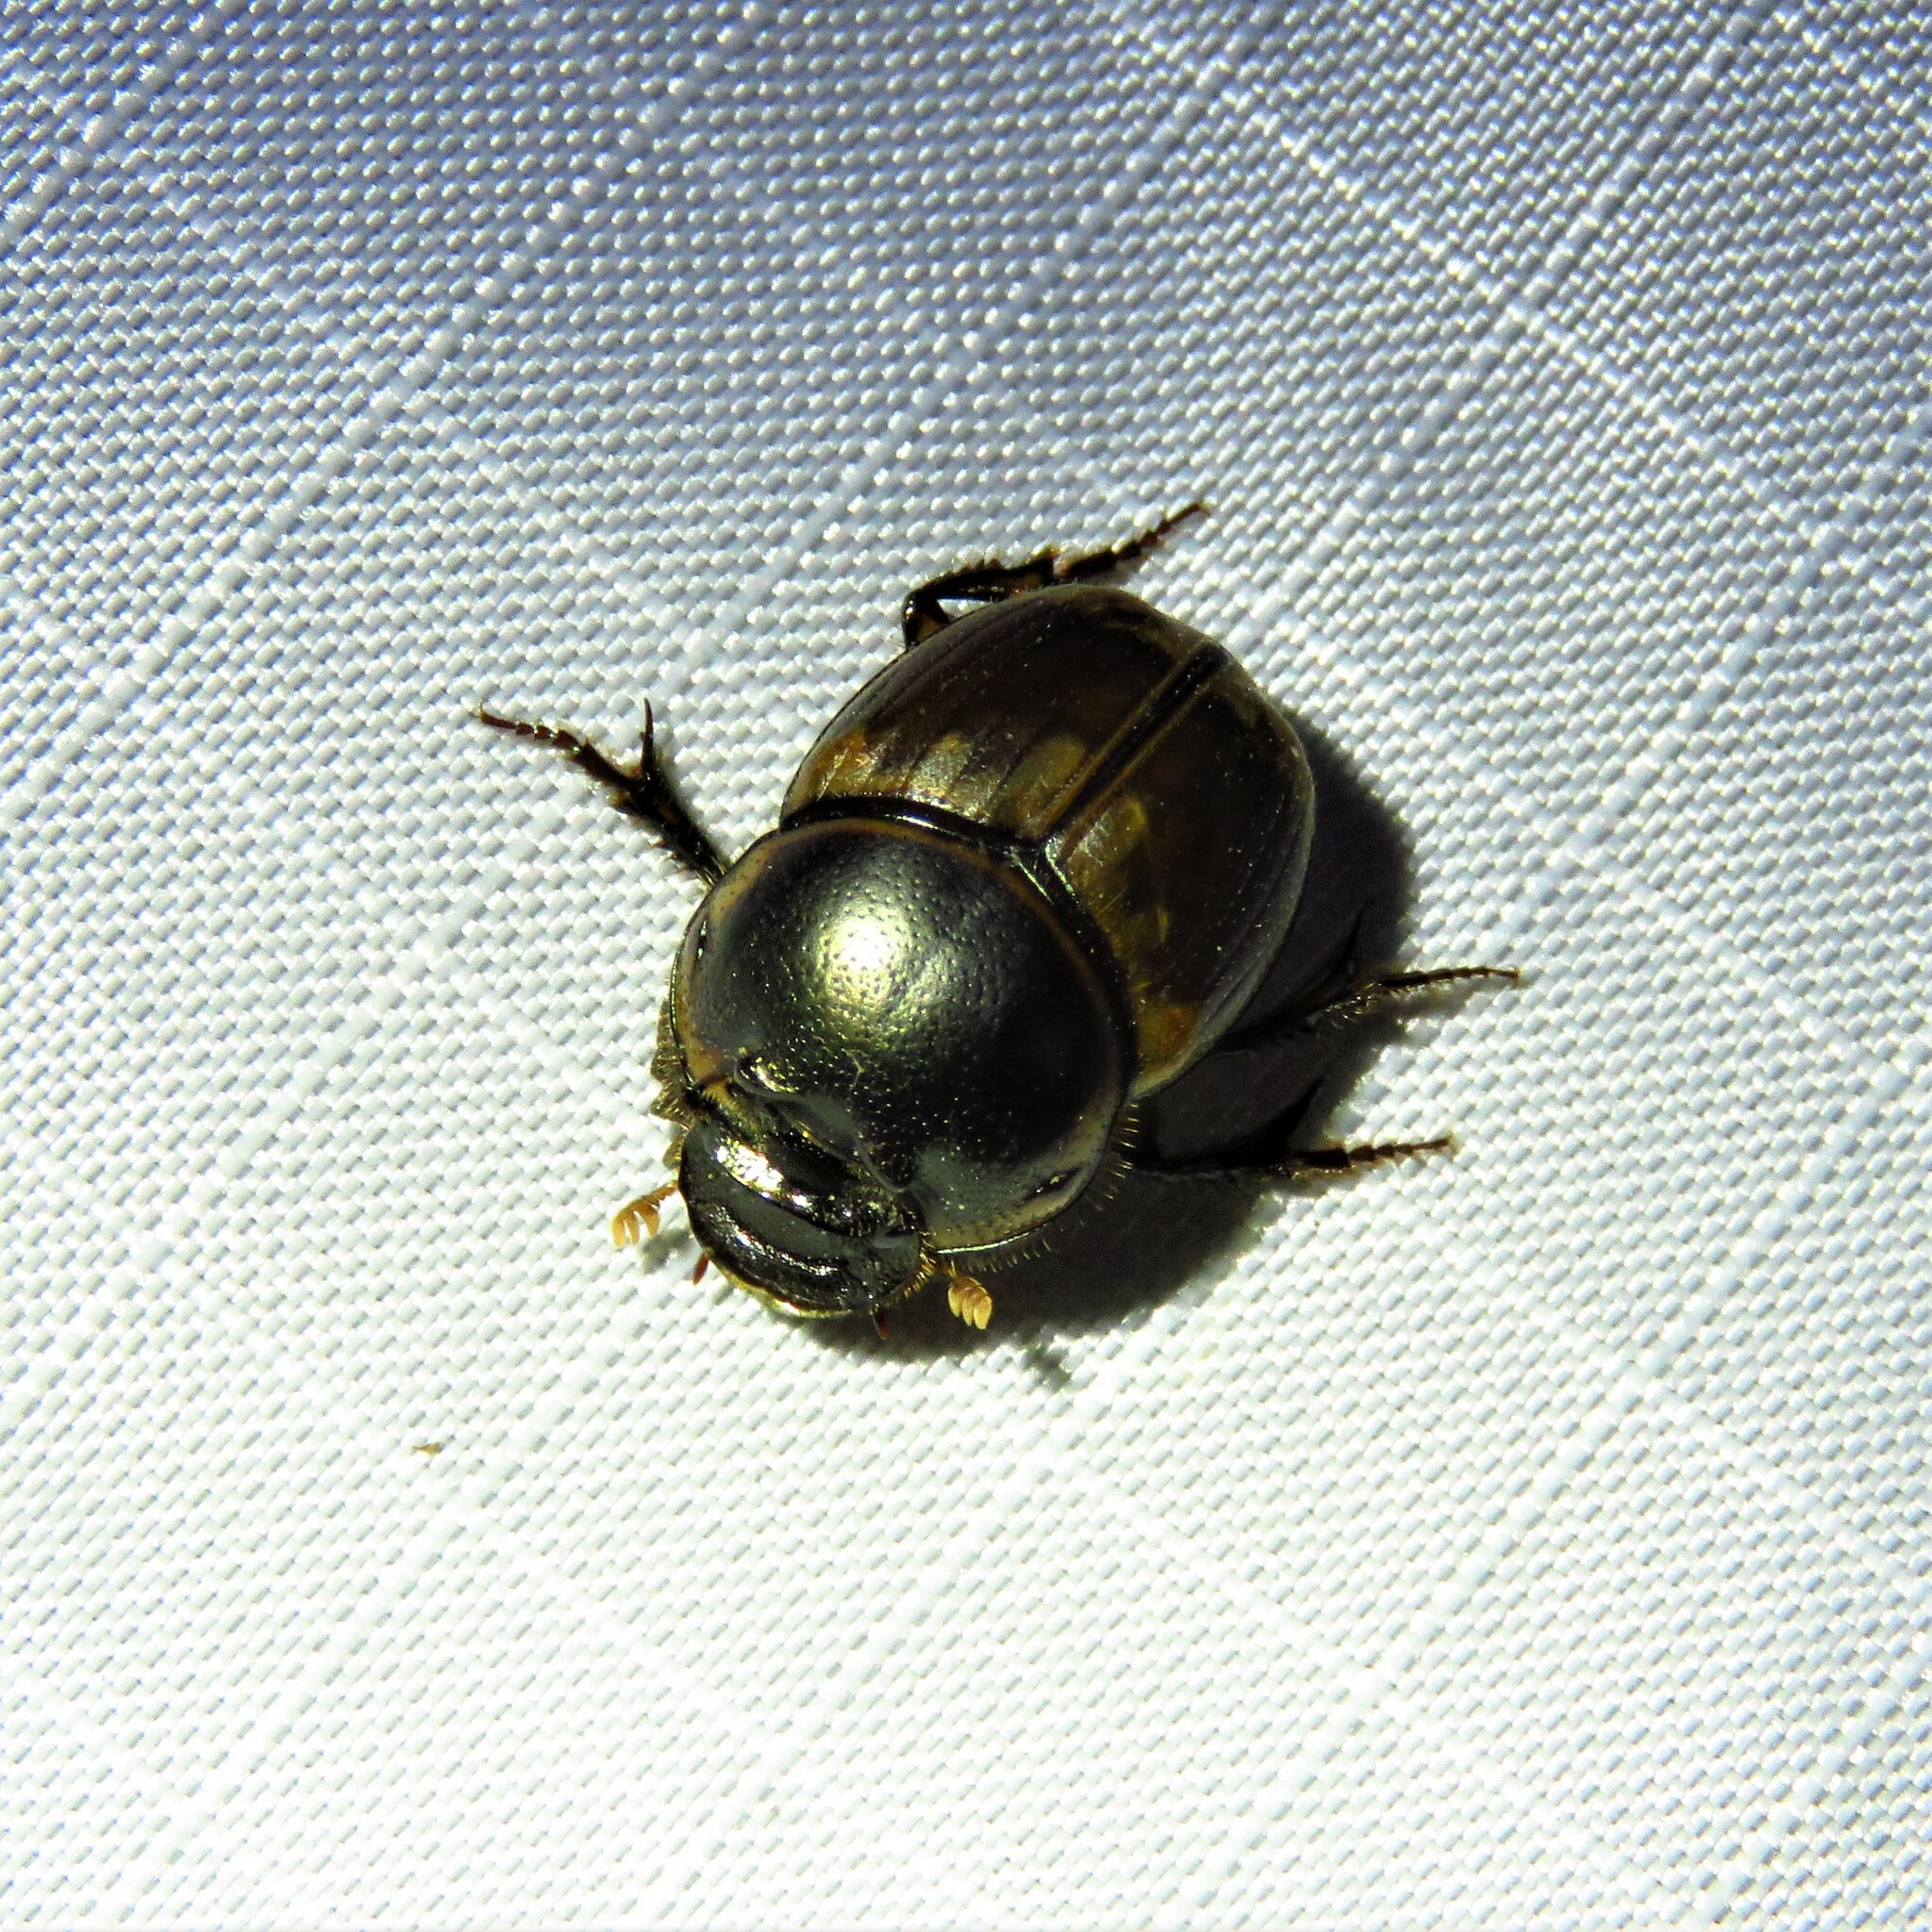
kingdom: Animalia
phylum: Arthropoda
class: Insecta
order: Coleoptera
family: Scarabaeidae
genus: Digitonthophagus
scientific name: Digitonthophagus gazella
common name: Brown dung beetle
